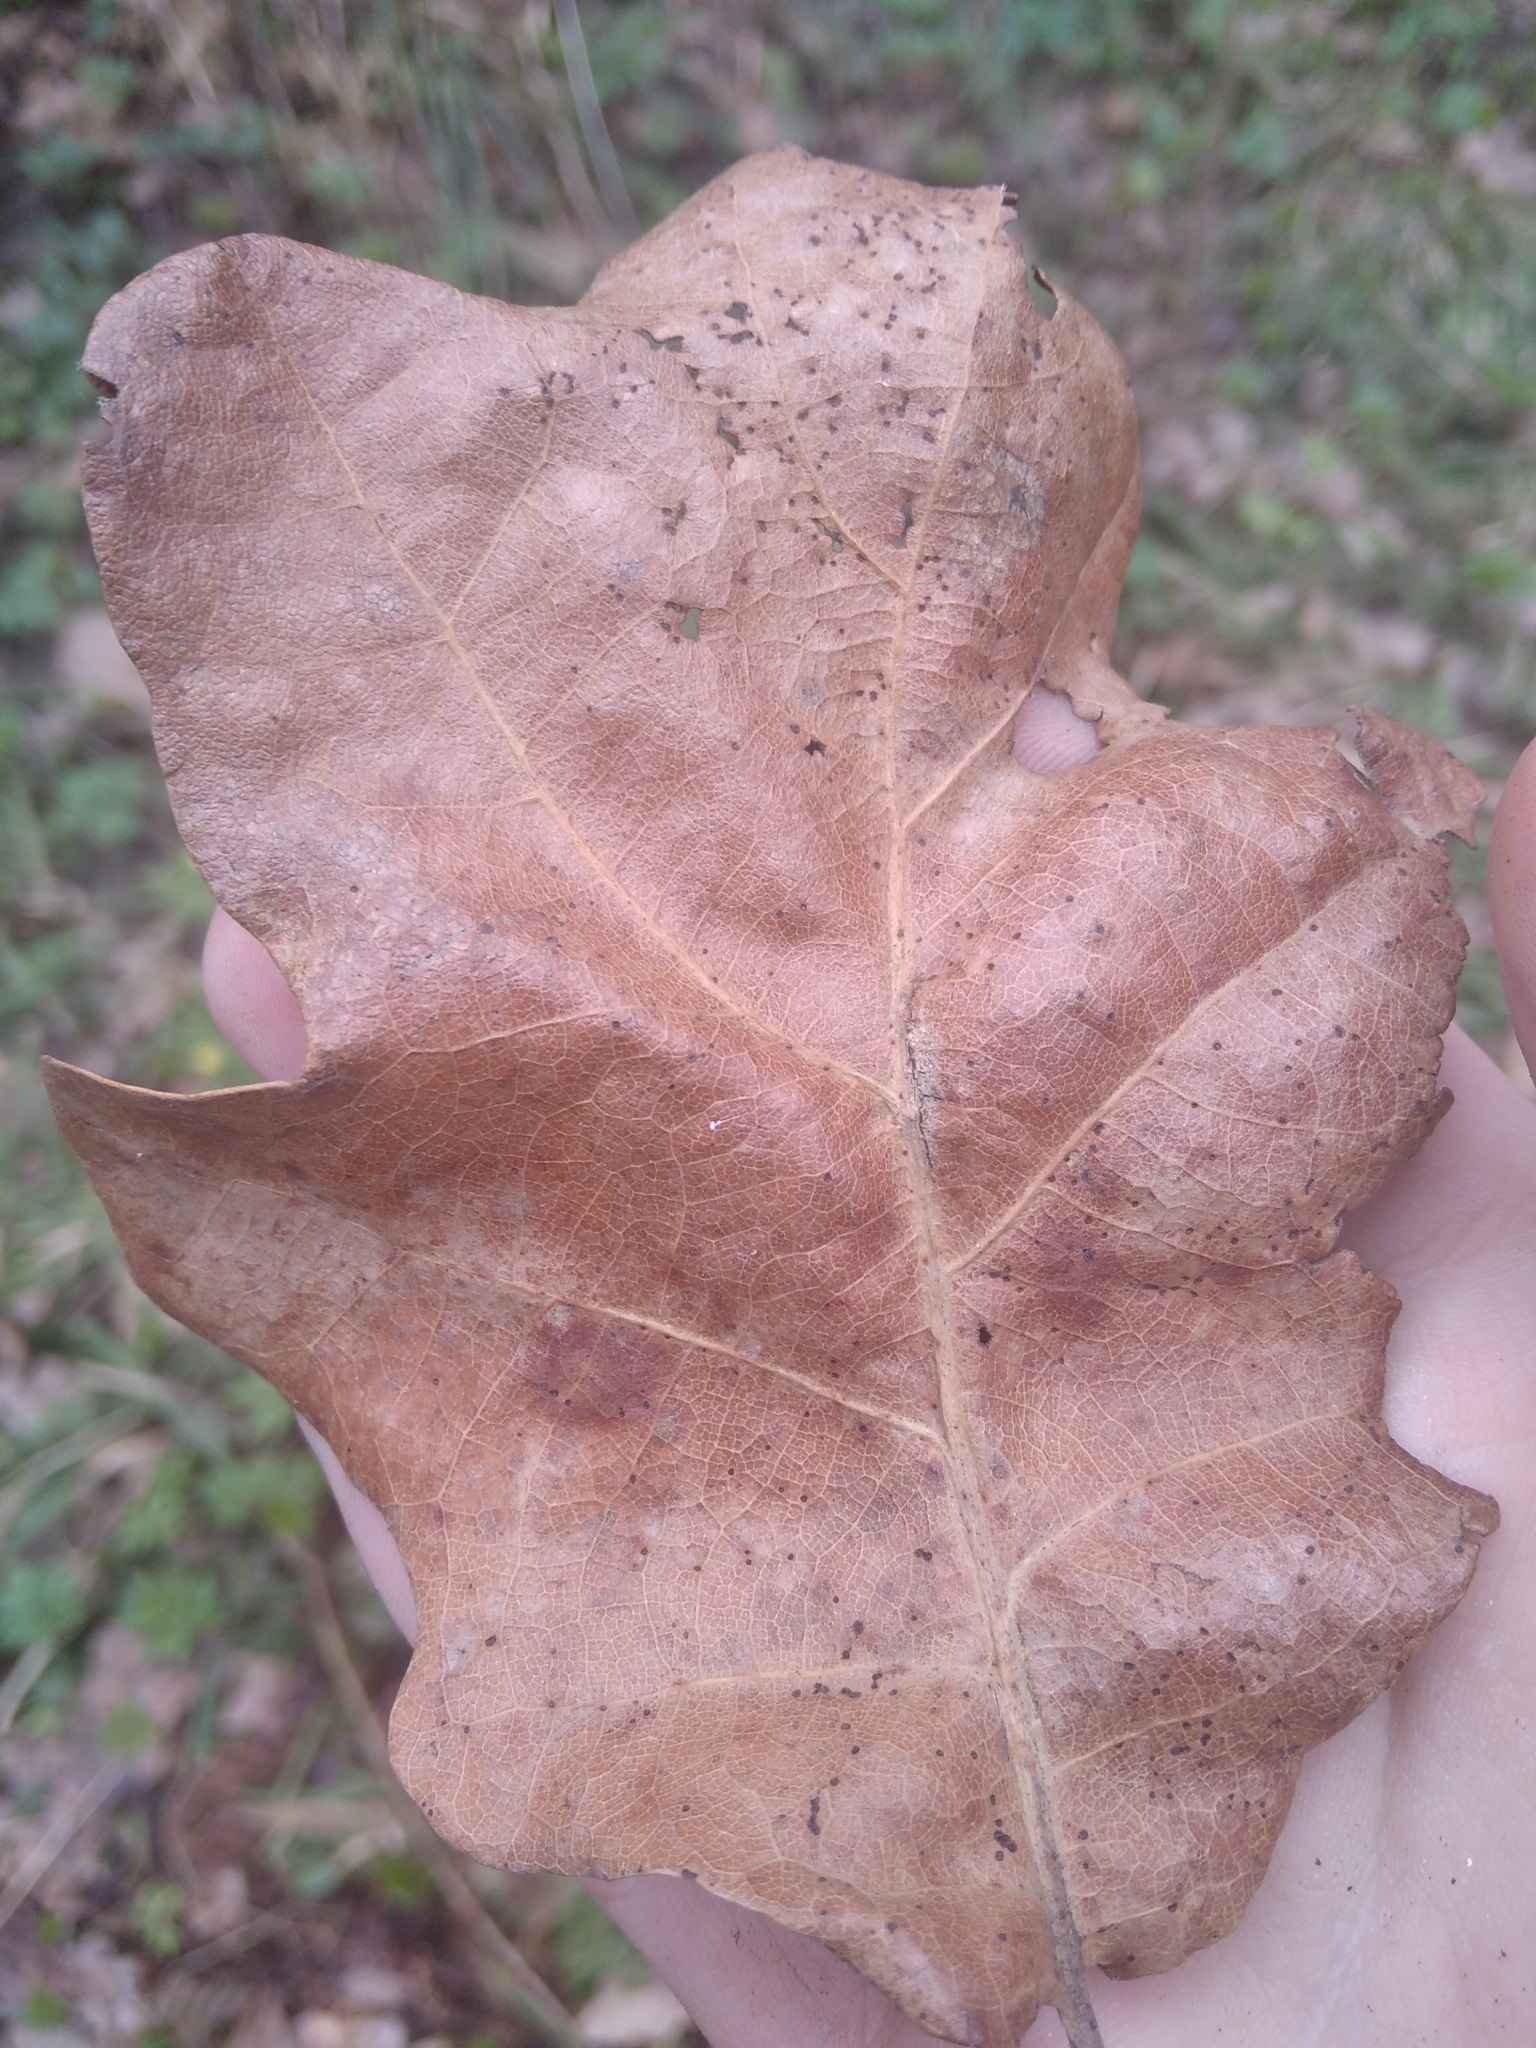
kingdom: Plantae
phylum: Tracheophyta
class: Magnoliopsida
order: Fagales
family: Fagaceae
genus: Quercus
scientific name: Quercus robur
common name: Pedunculate oak
